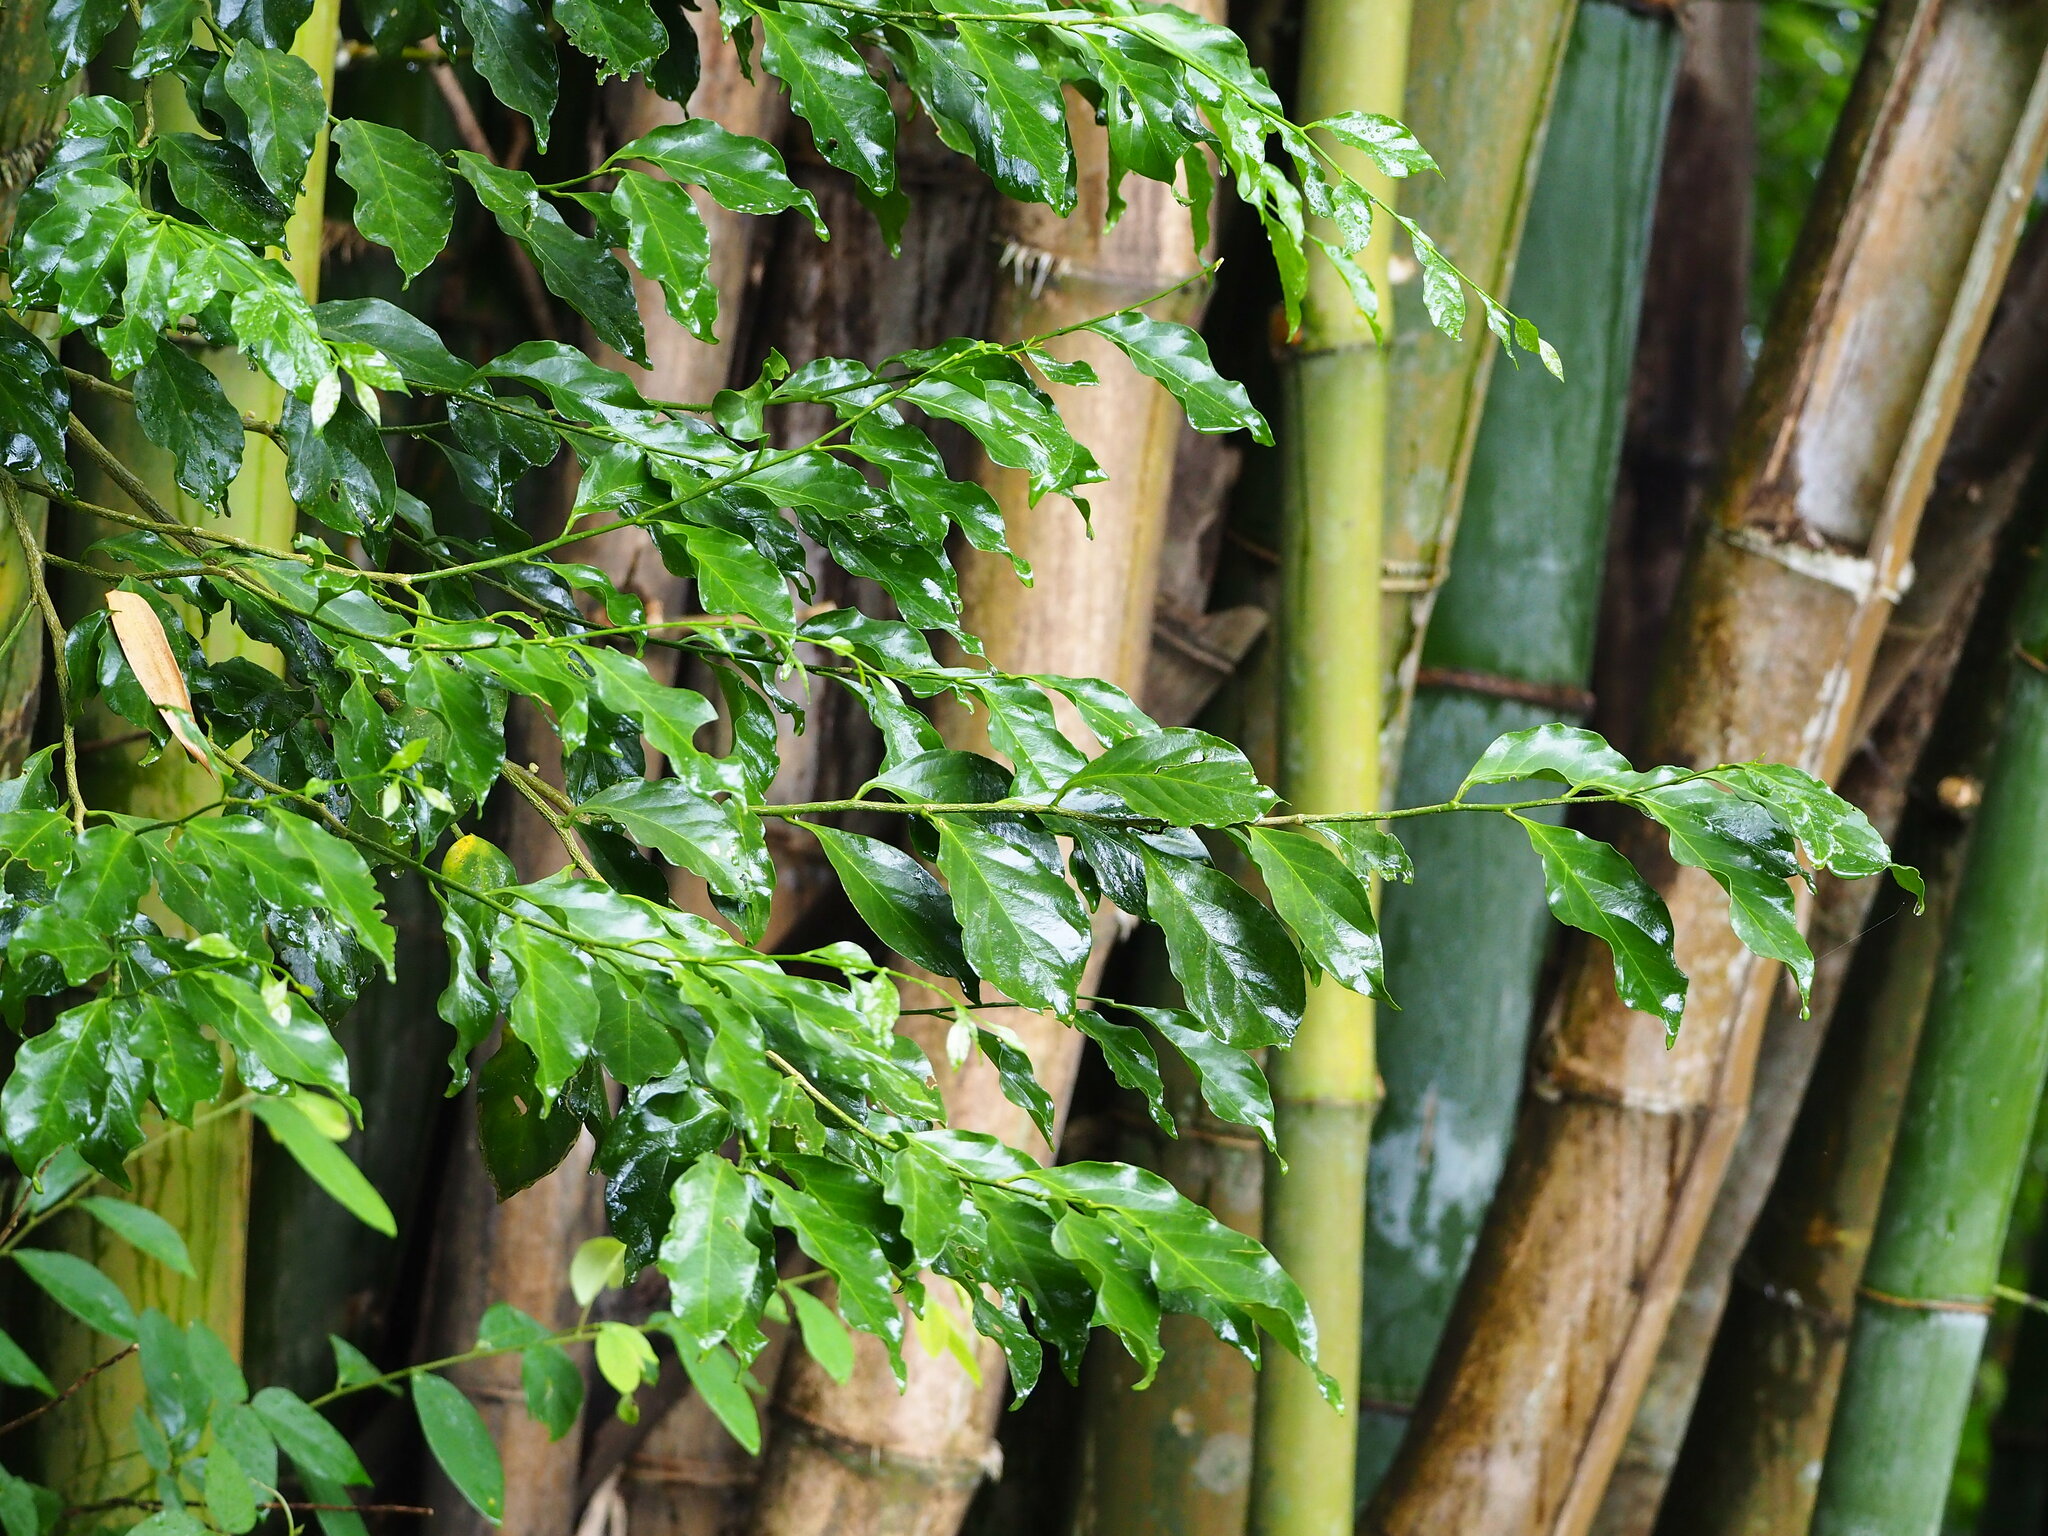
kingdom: Plantae
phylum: Tracheophyta
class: Magnoliopsida
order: Santalales
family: Opiliaceae
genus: Champereia
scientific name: Champereia manillana
